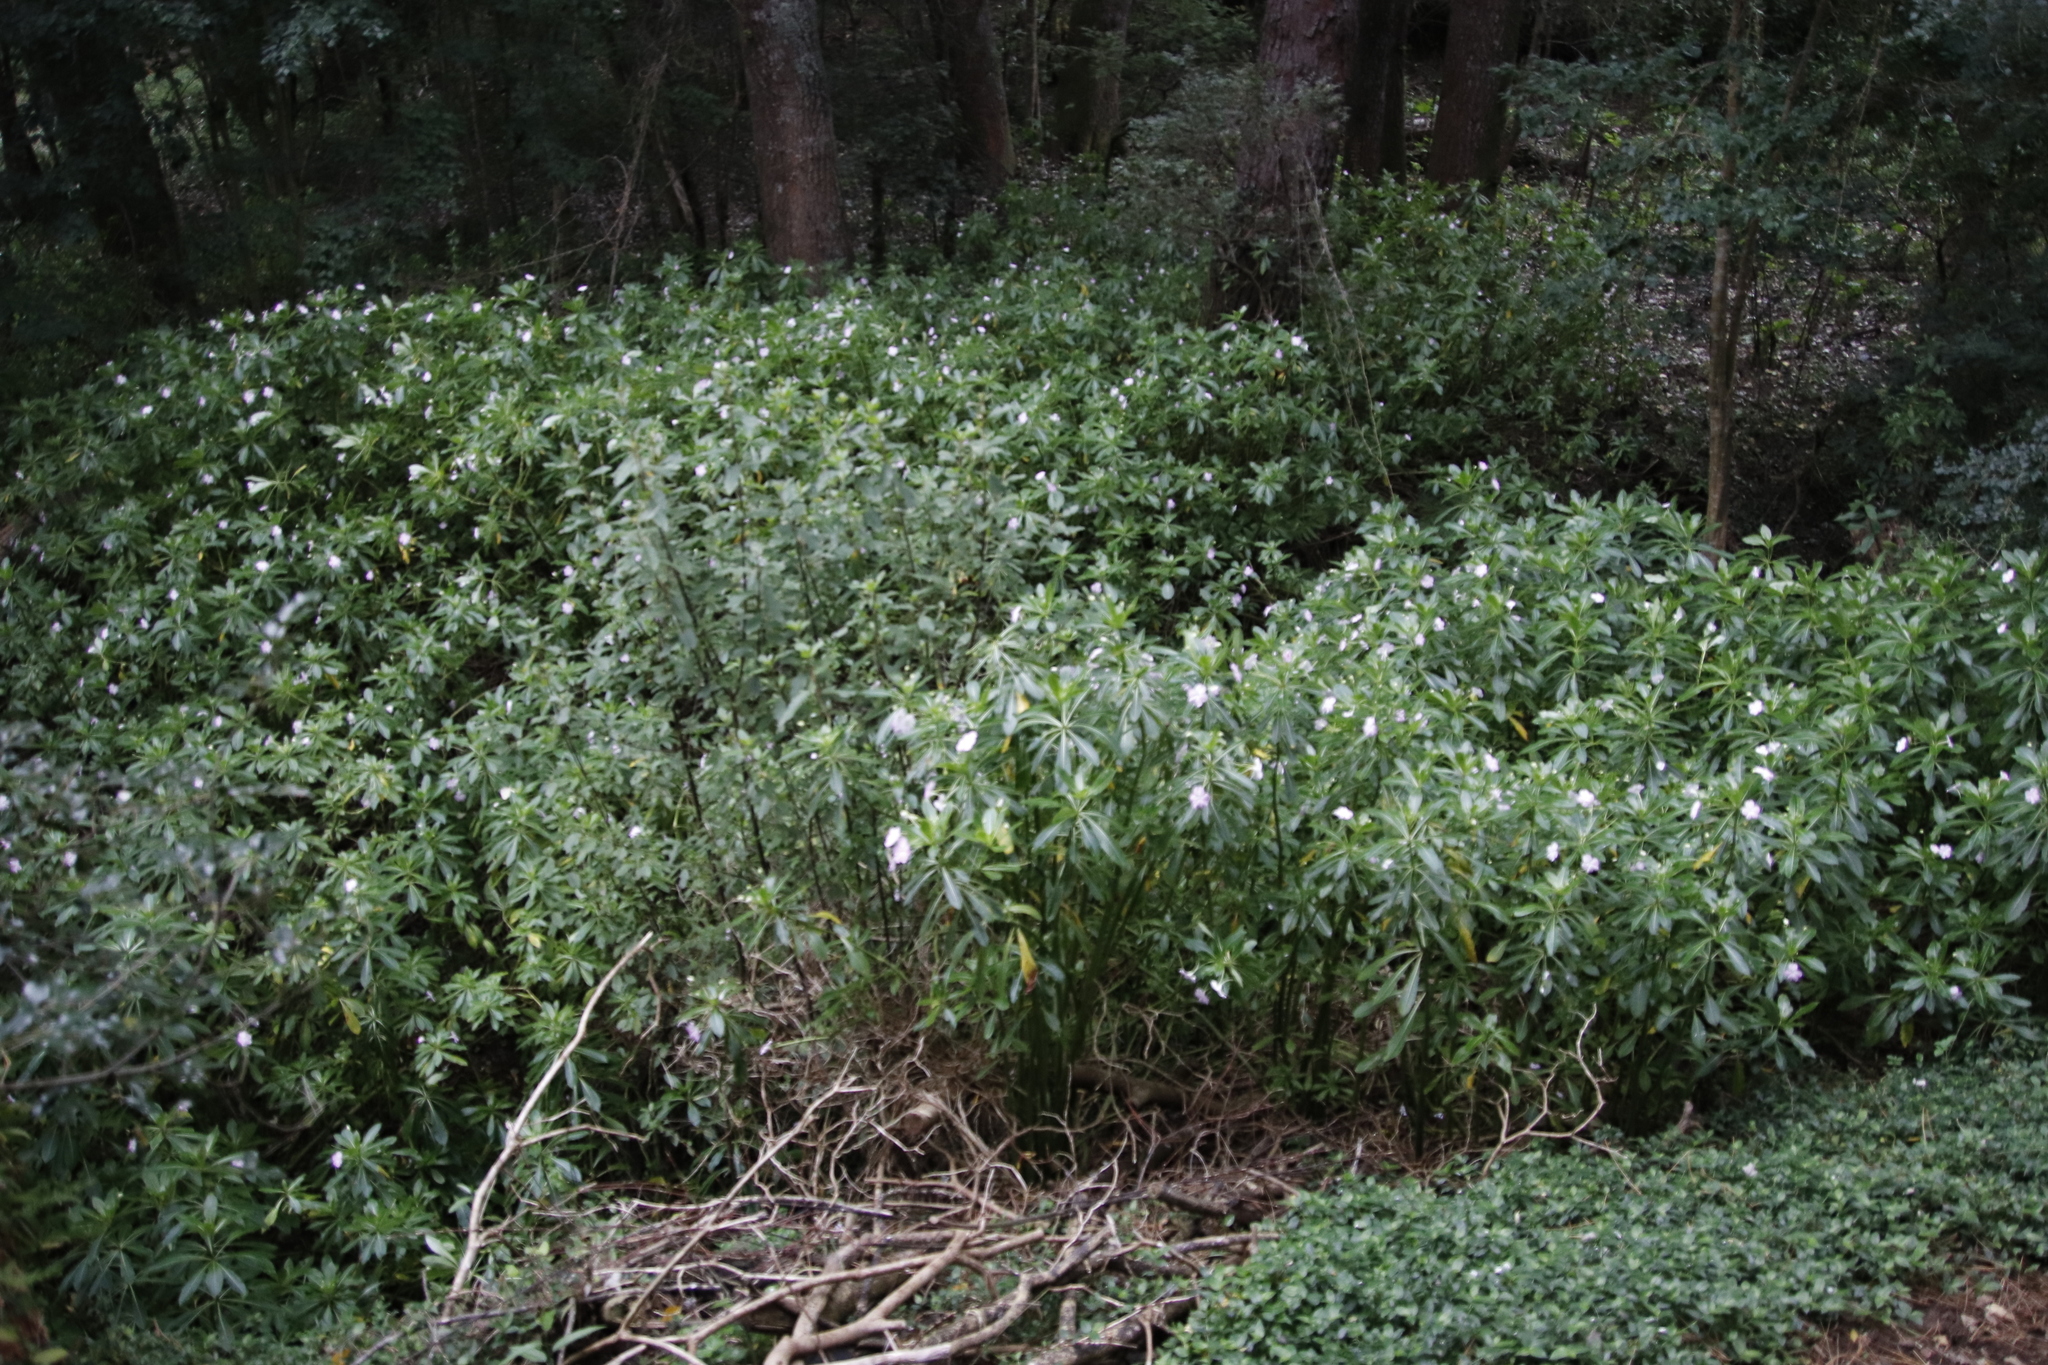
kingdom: Plantae
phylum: Tracheophyta
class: Magnoliopsida
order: Ericales
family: Balsaminaceae
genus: Impatiens
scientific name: Impatiens sodenii
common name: Oliver's touch-me-not
